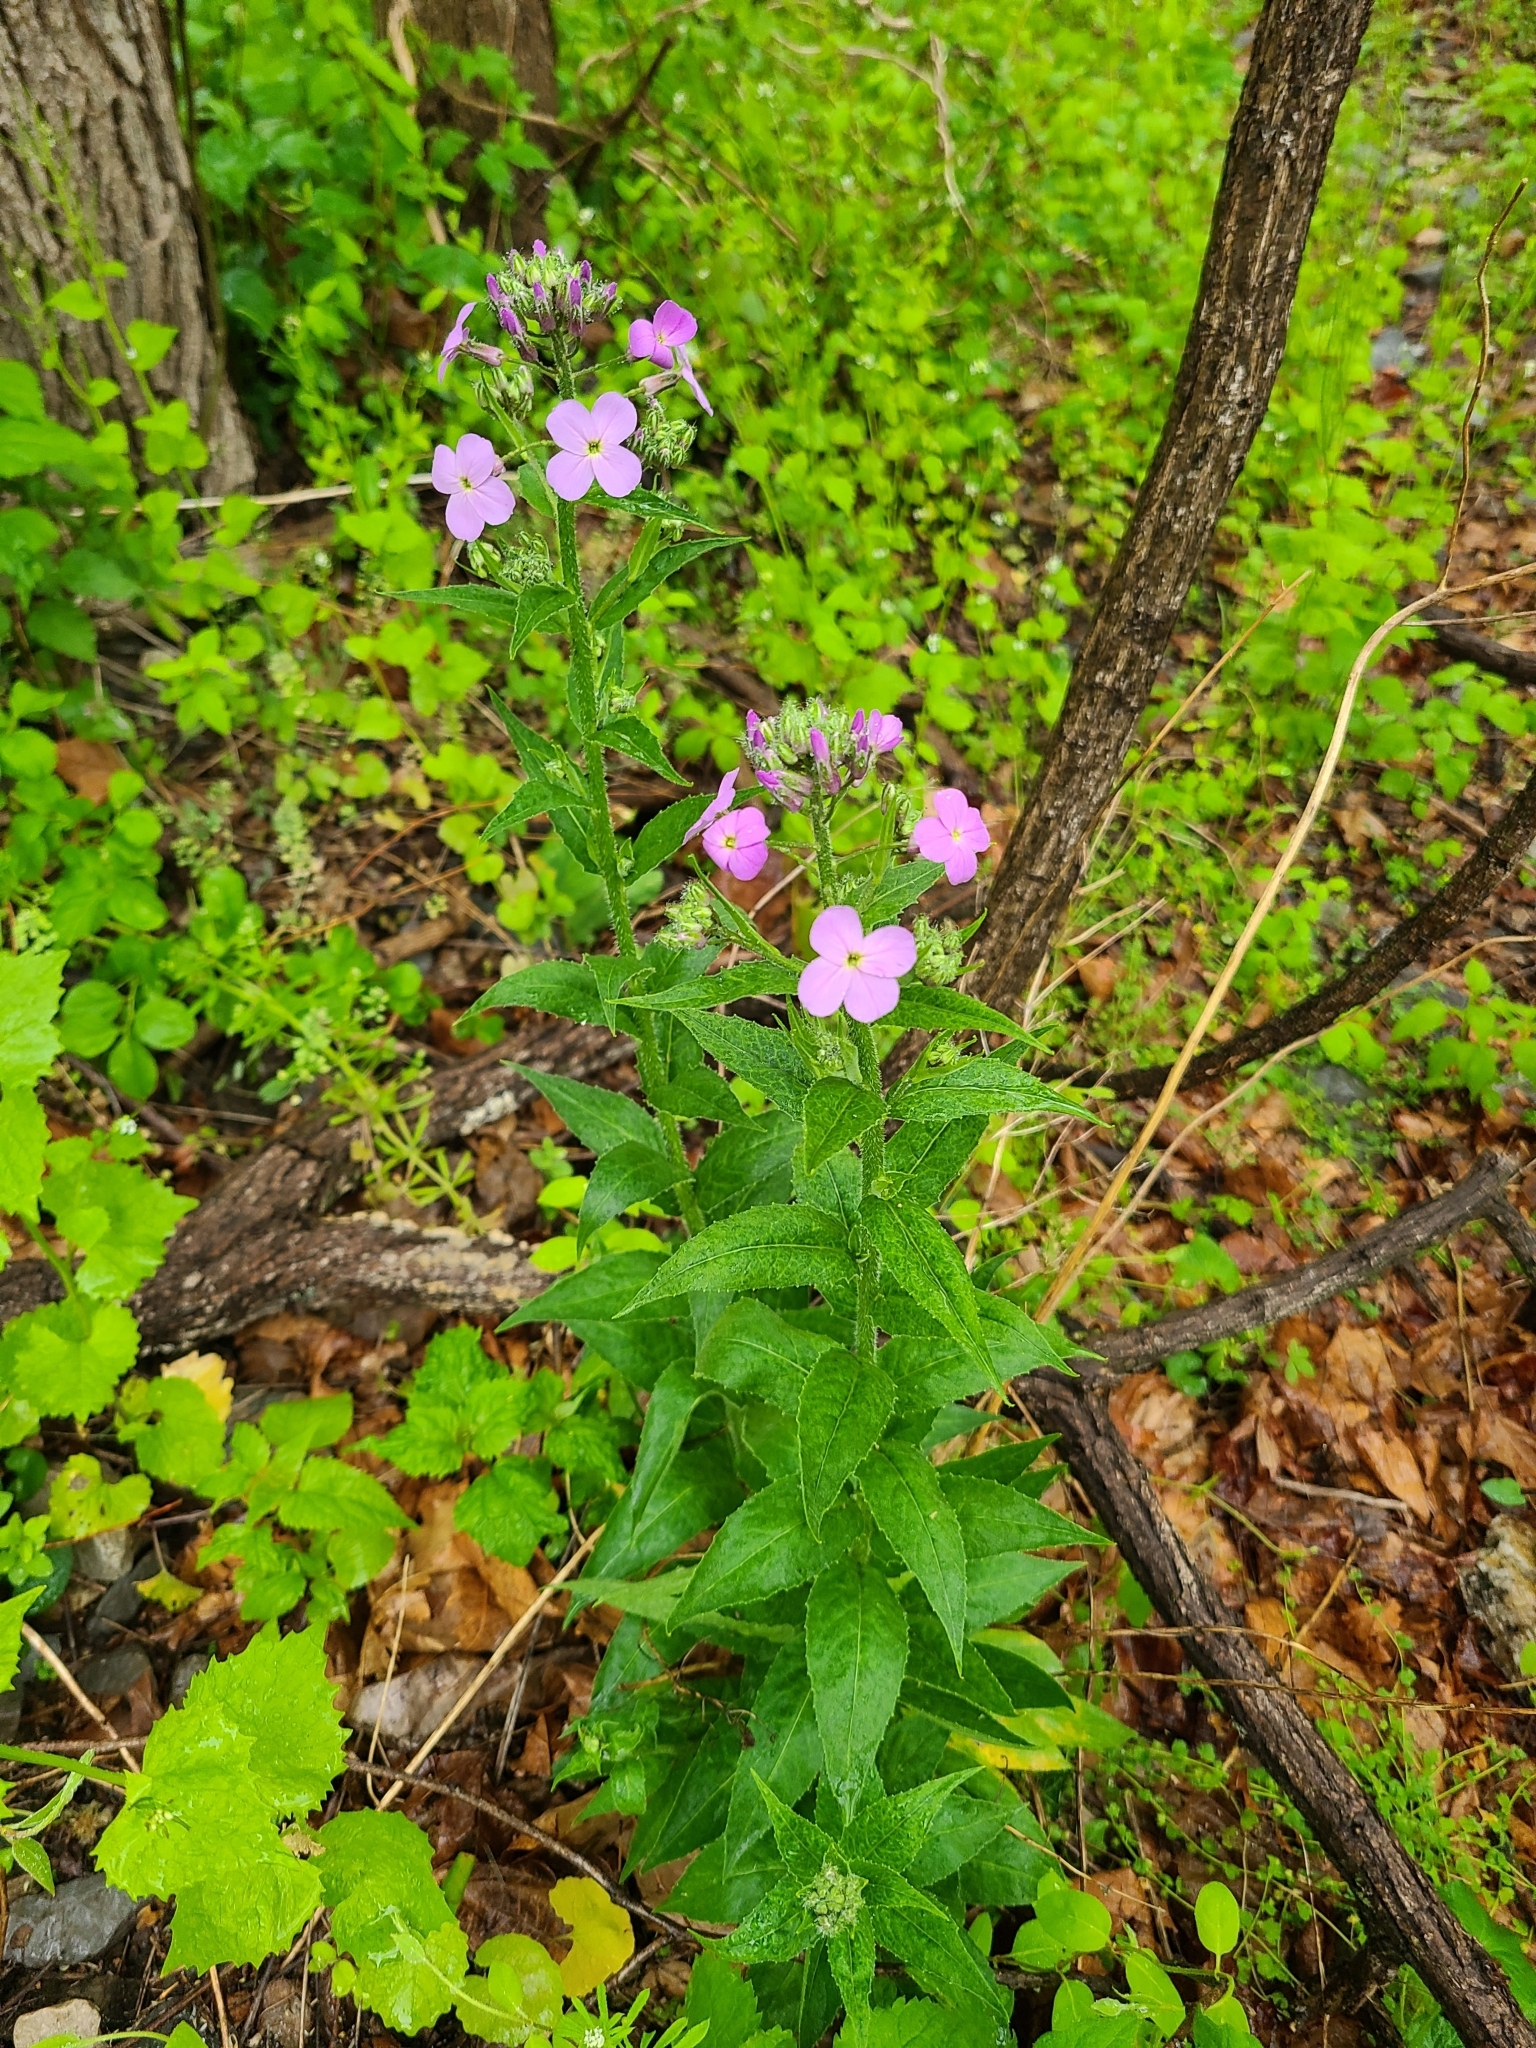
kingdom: Plantae
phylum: Tracheophyta
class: Magnoliopsida
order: Brassicales
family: Brassicaceae
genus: Hesperis
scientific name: Hesperis matronalis
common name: Dame's-violet
